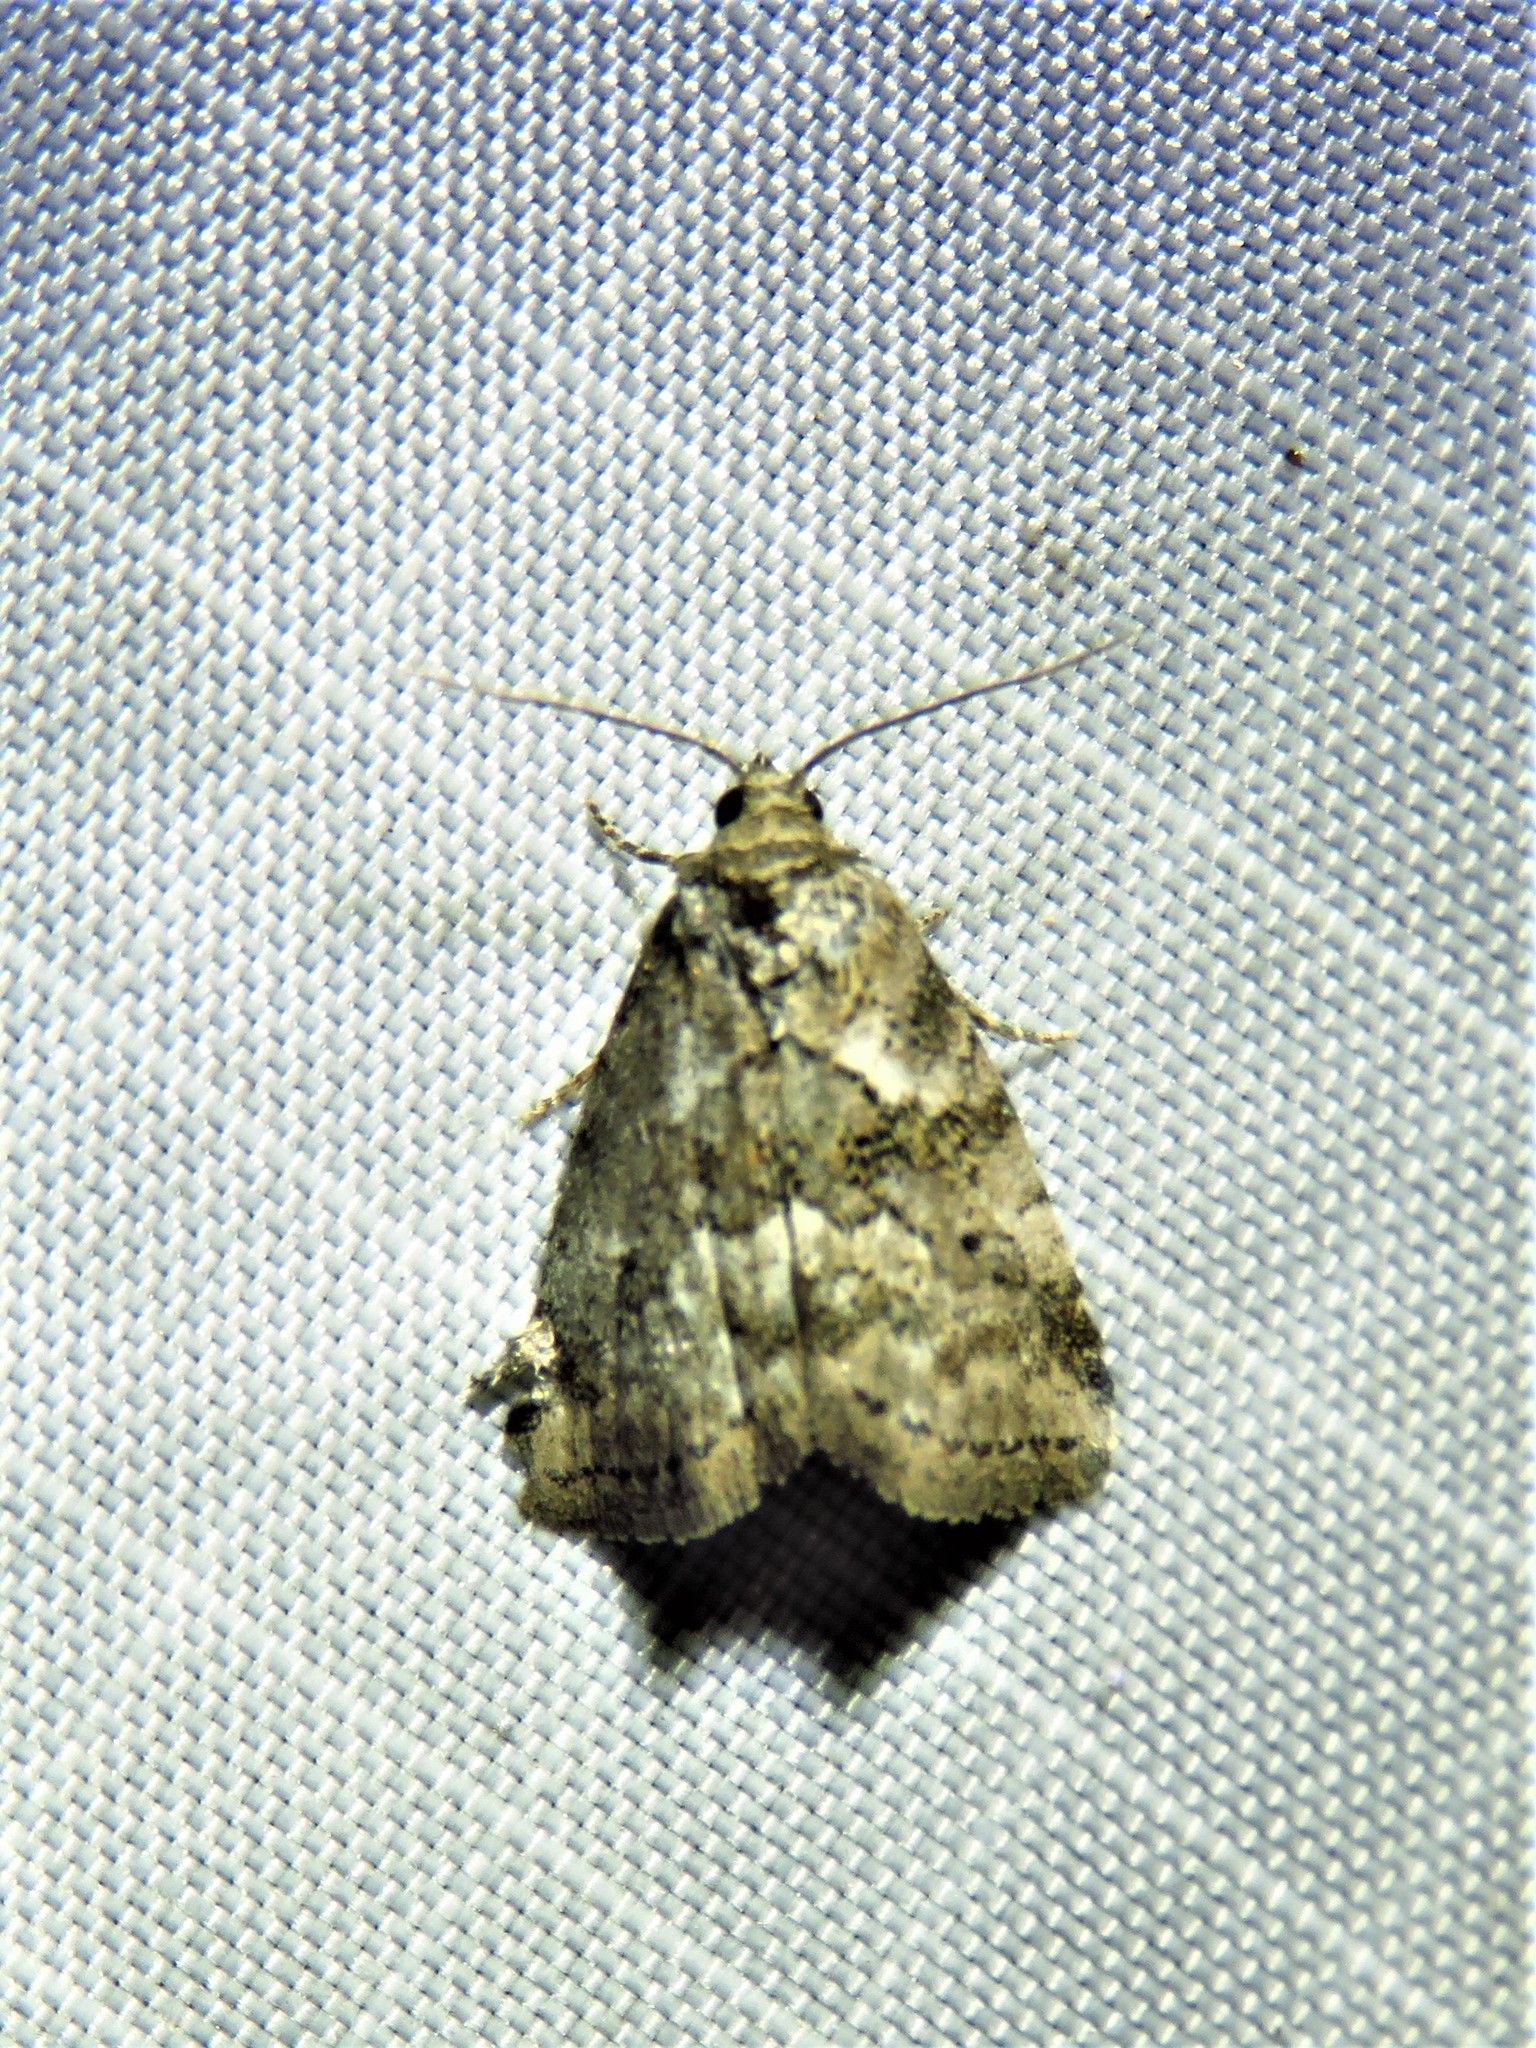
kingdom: Animalia
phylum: Arthropoda
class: Insecta
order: Lepidoptera
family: Erebidae
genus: Hyperstrotia
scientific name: Hyperstrotia nana
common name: White-lined graylet
